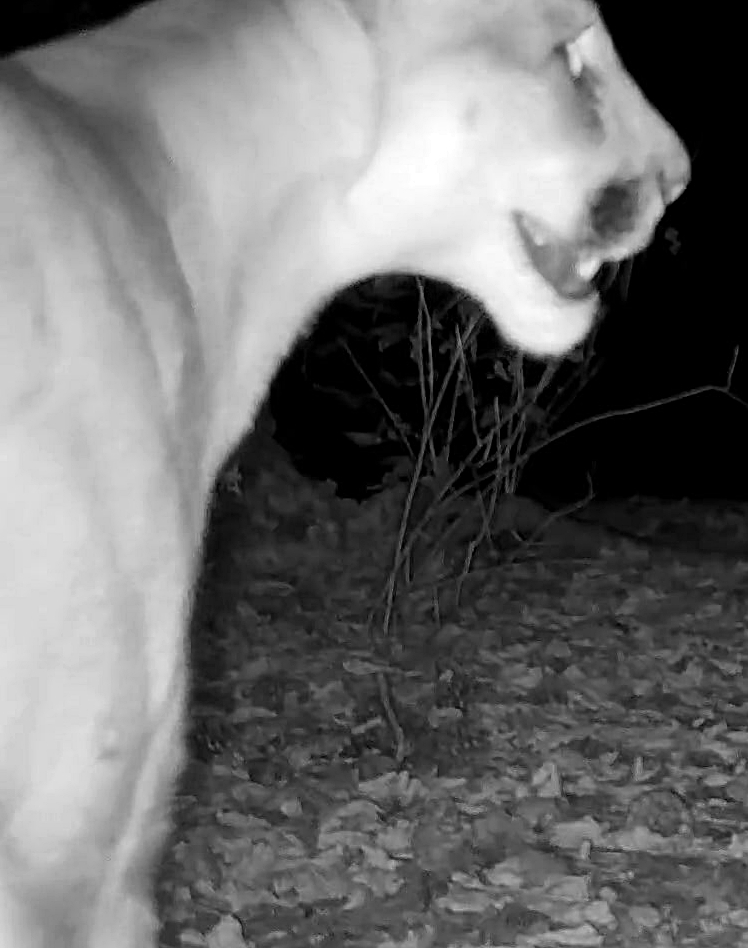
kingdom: Animalia
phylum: Chordata
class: Mammalia
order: Carnivora
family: Felidae
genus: Puma
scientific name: Puma concolor
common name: Puma
